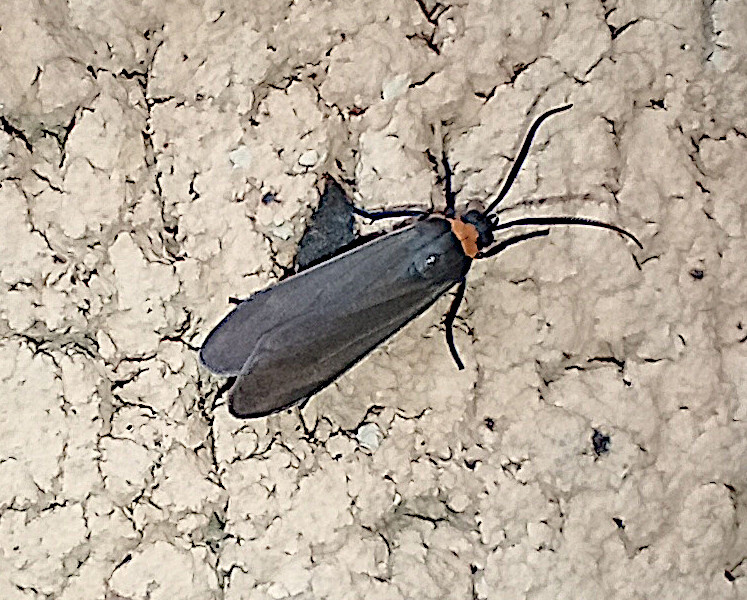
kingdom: Animalia
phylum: Arthropoda
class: Insecta
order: Lepidoptera
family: Erebidae
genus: Cisseps
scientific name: Cisseps fulvicollis
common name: Yellow-collared scape moth
